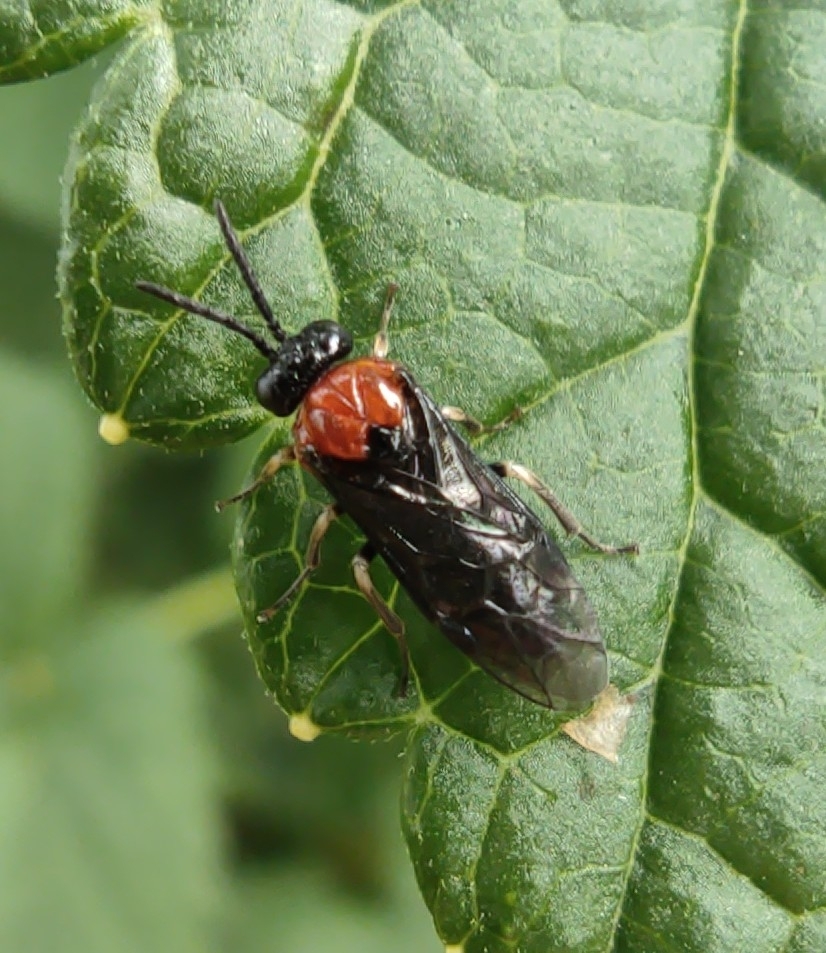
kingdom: Animalia
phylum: Arthropoda
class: Insecta
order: Hymenoptera
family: Tenthredinidae
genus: Eutomostethus
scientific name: Eutomostethus ephippium
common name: Tenthredid wasp
